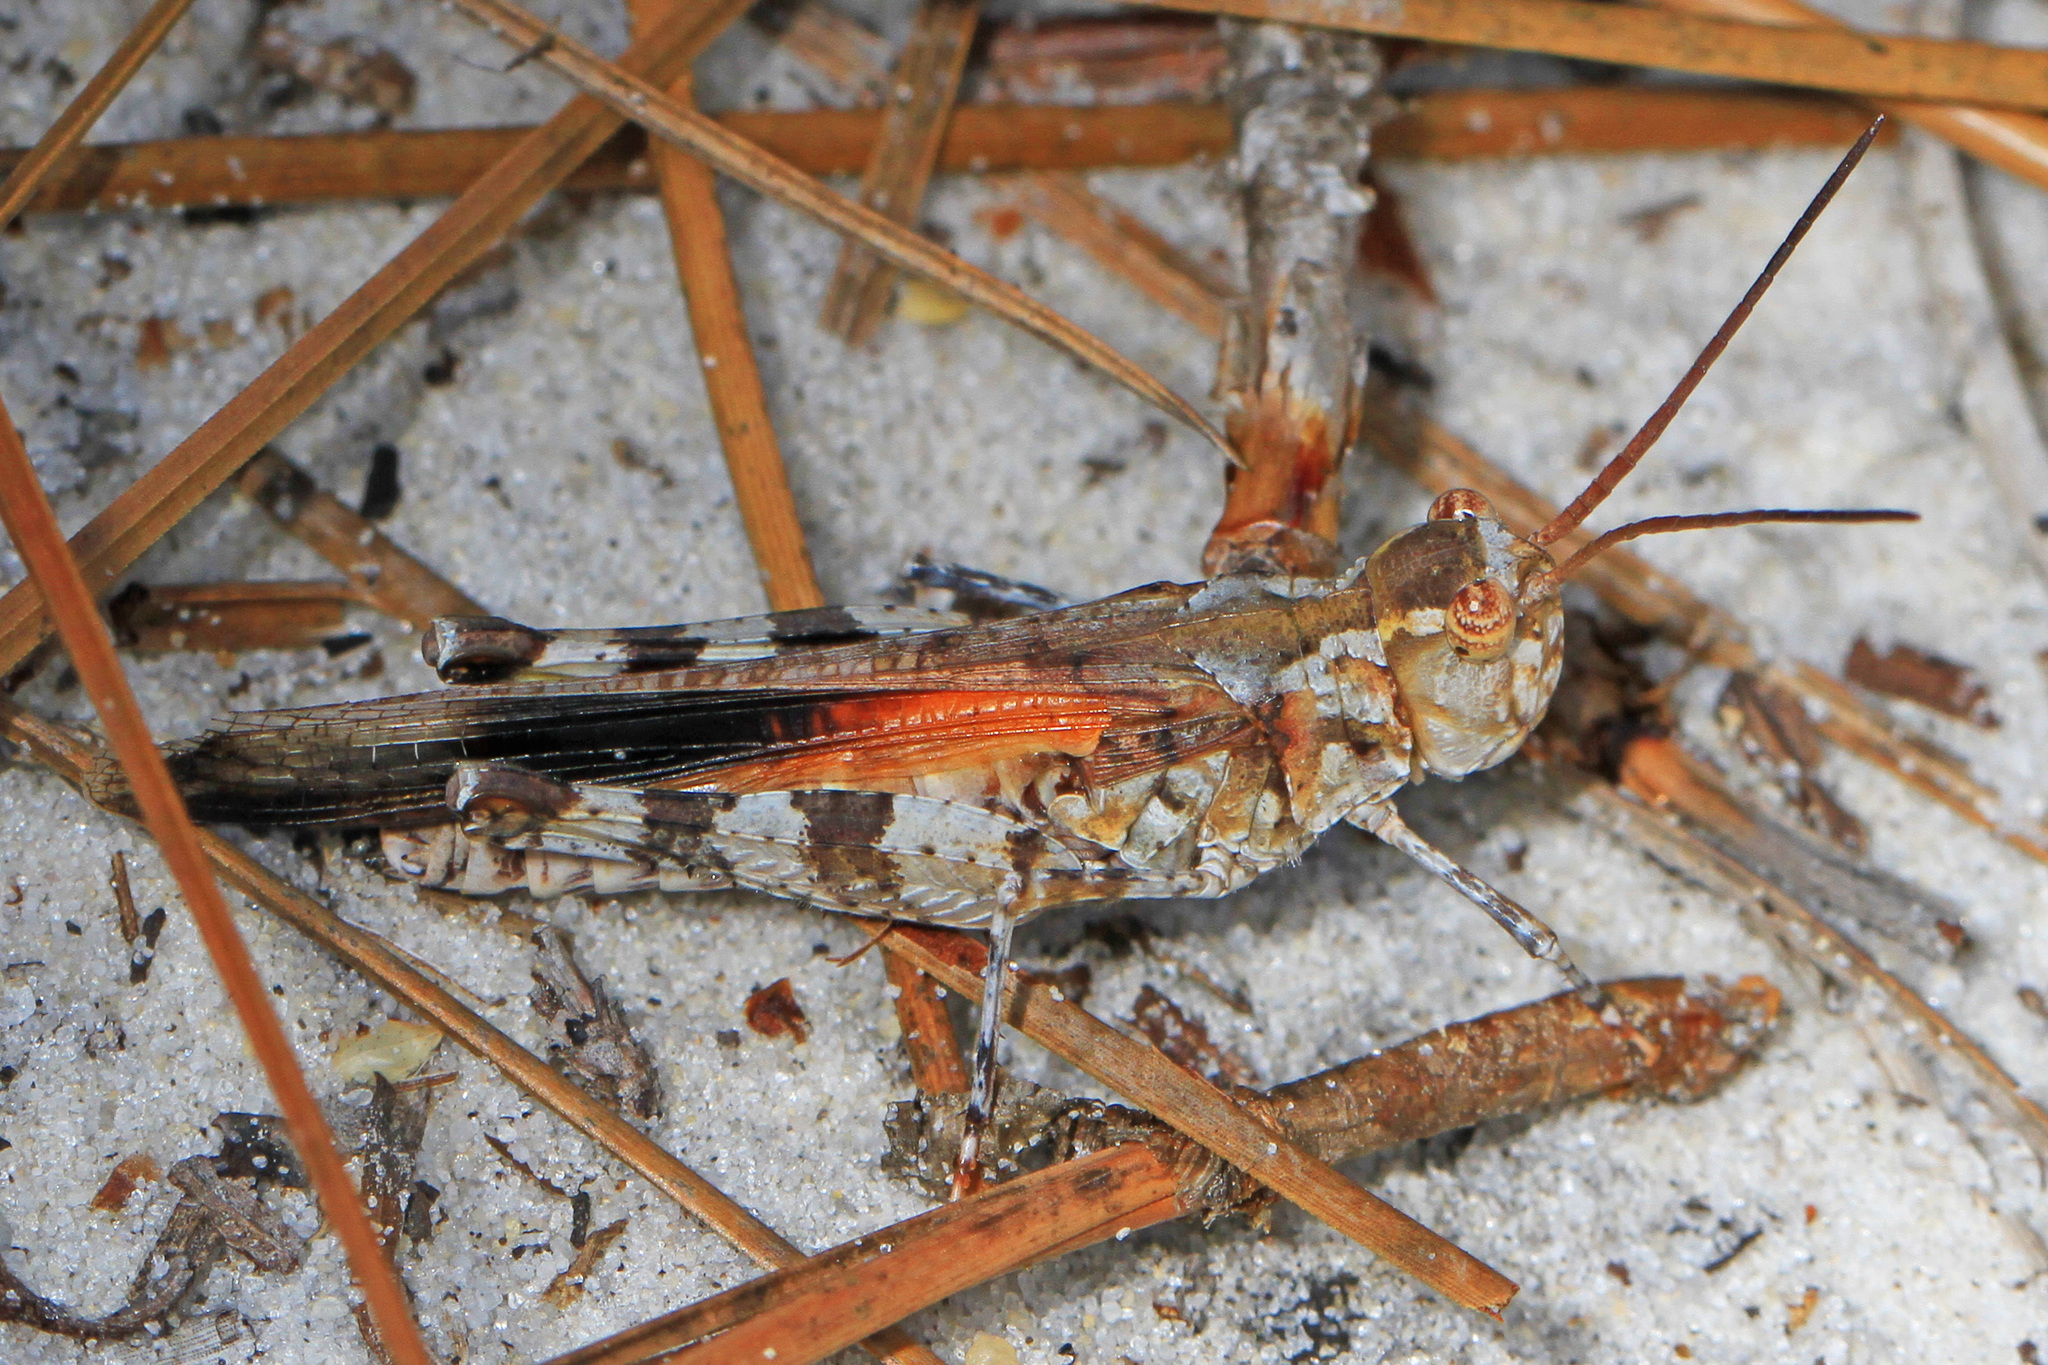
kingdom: Animalia
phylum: Arthropoda
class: Insecta
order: Orthoptera
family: Acrididae
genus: Psinidia
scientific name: Psinidia fenestralis
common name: Long-horned locust
